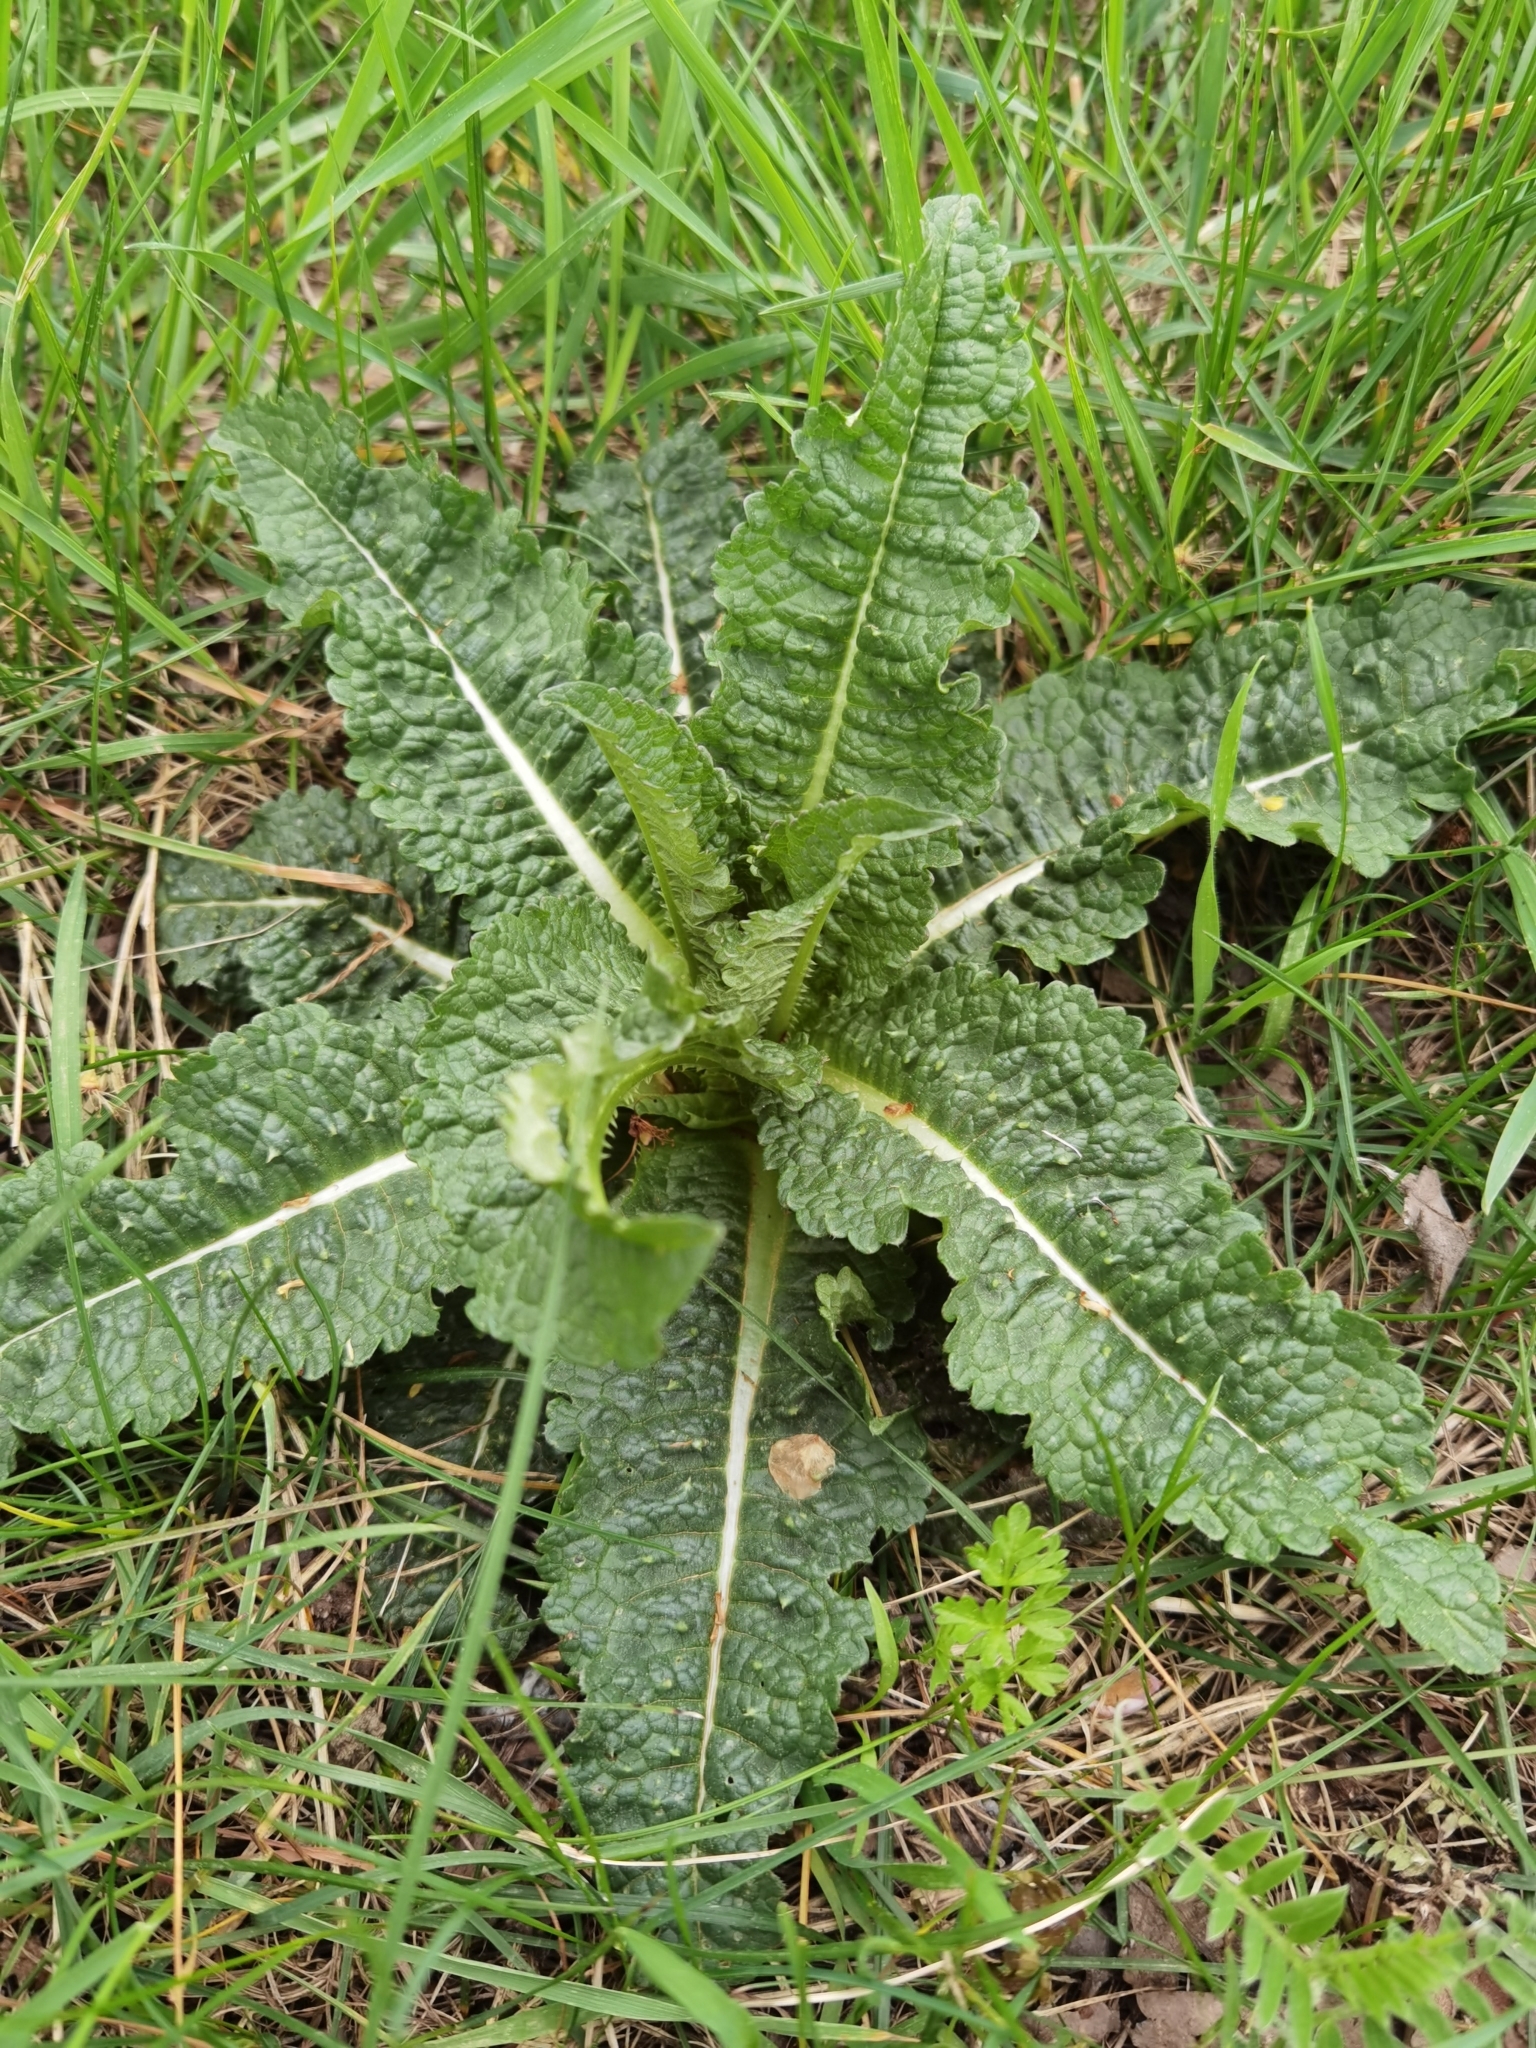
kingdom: Plantae
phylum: Tracheophyta
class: Magnoliopsida
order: Dipsacales
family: Caprifoliaceae
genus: Dipsacus
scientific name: Dipsacus fullonum
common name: Teasel
